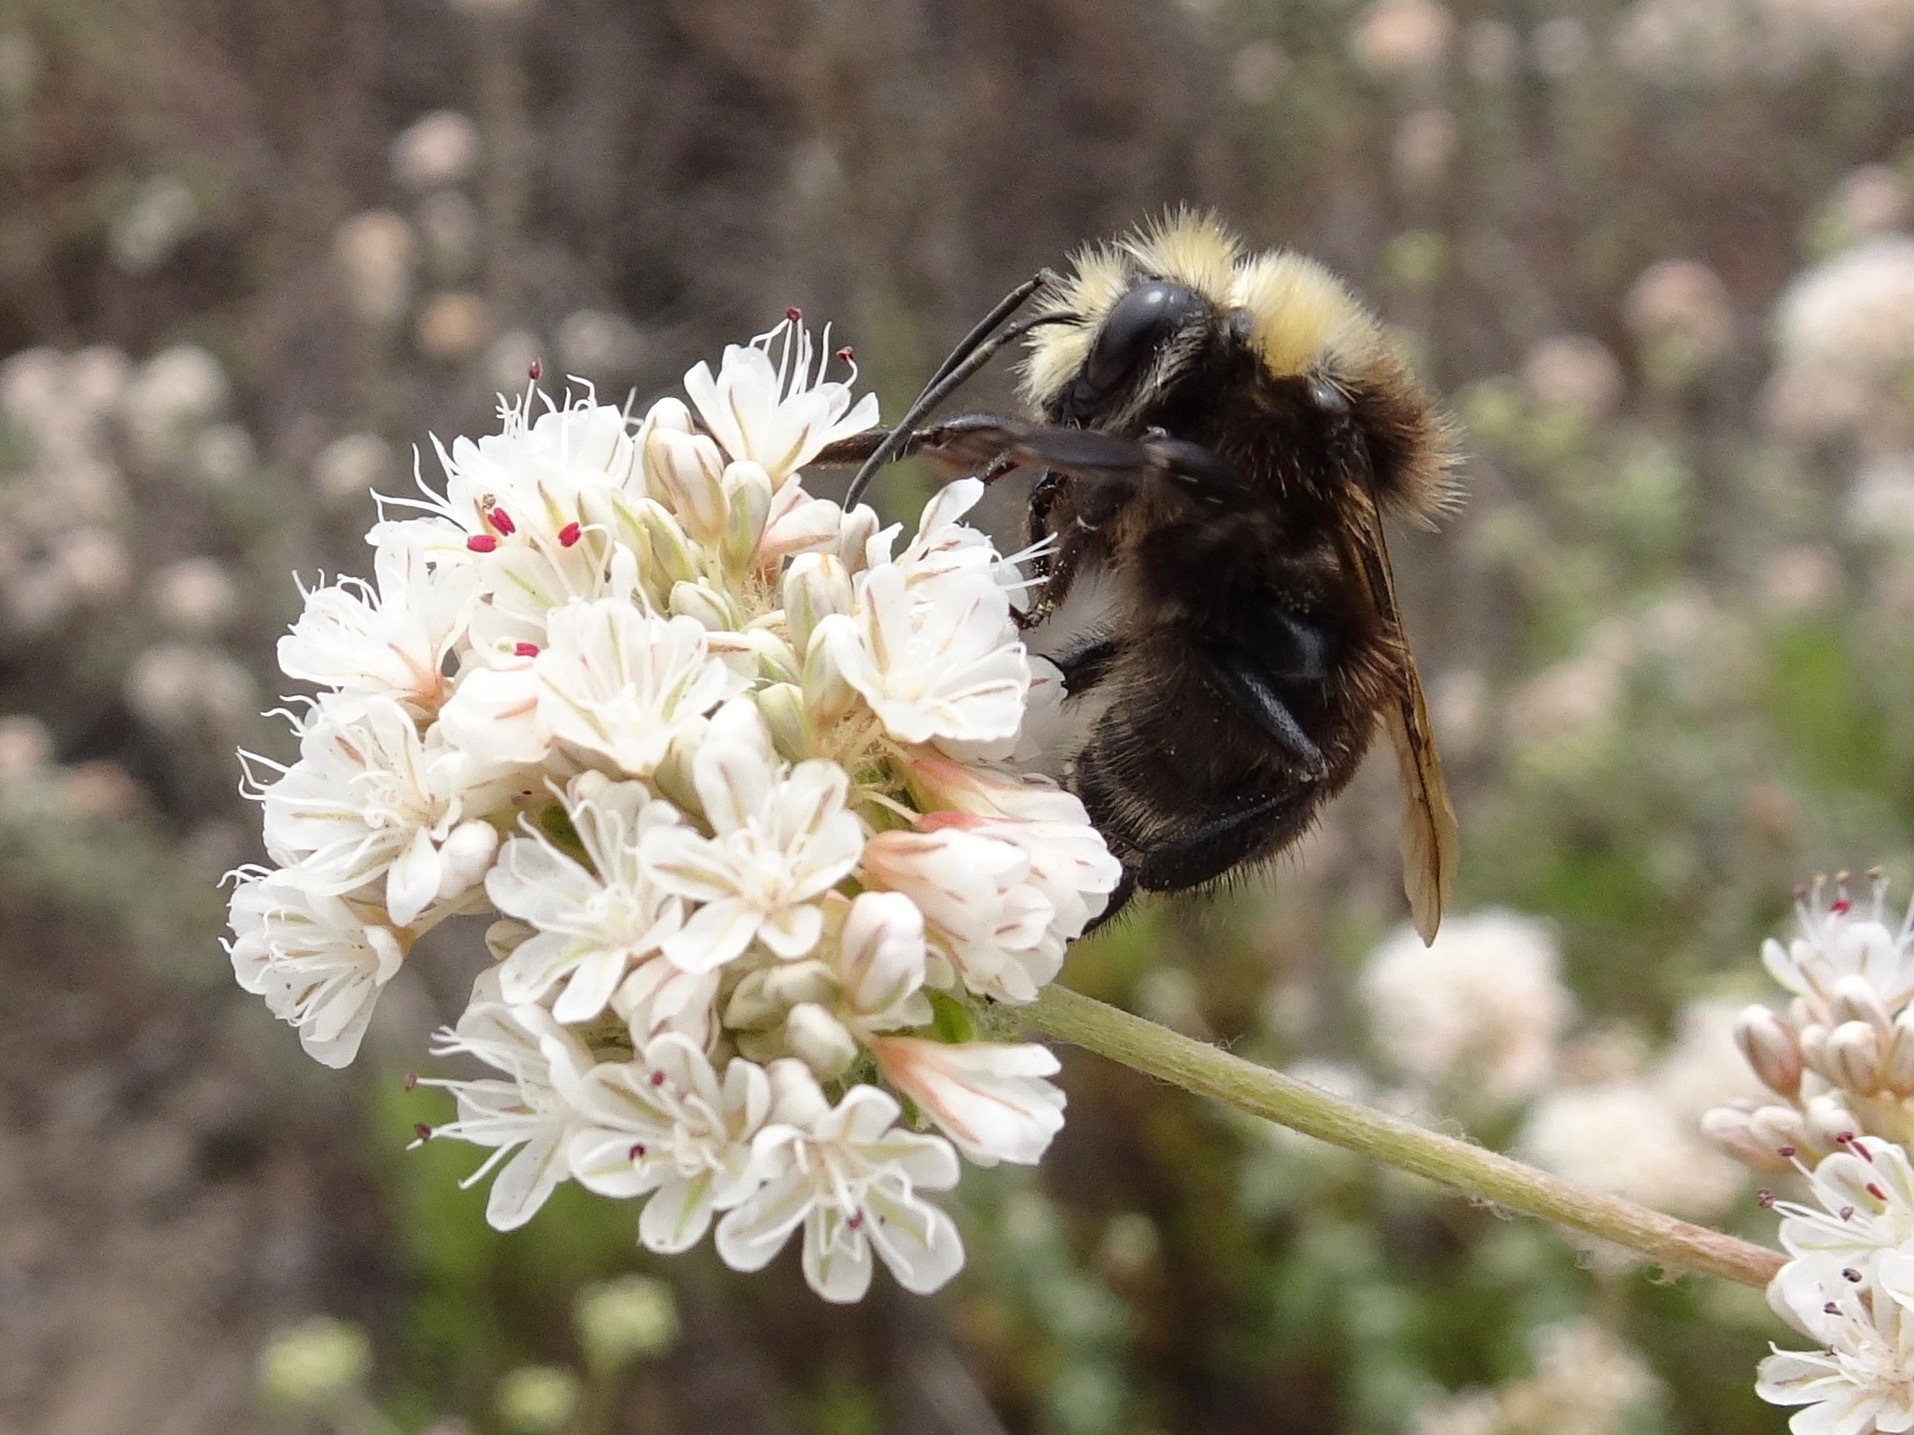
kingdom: Animalia
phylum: Arthropoda
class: Insecta
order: Hymenoptera
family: Apidae
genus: Bombus
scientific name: Bombus vosnesenskii
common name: Vosnesensky bumble bee
